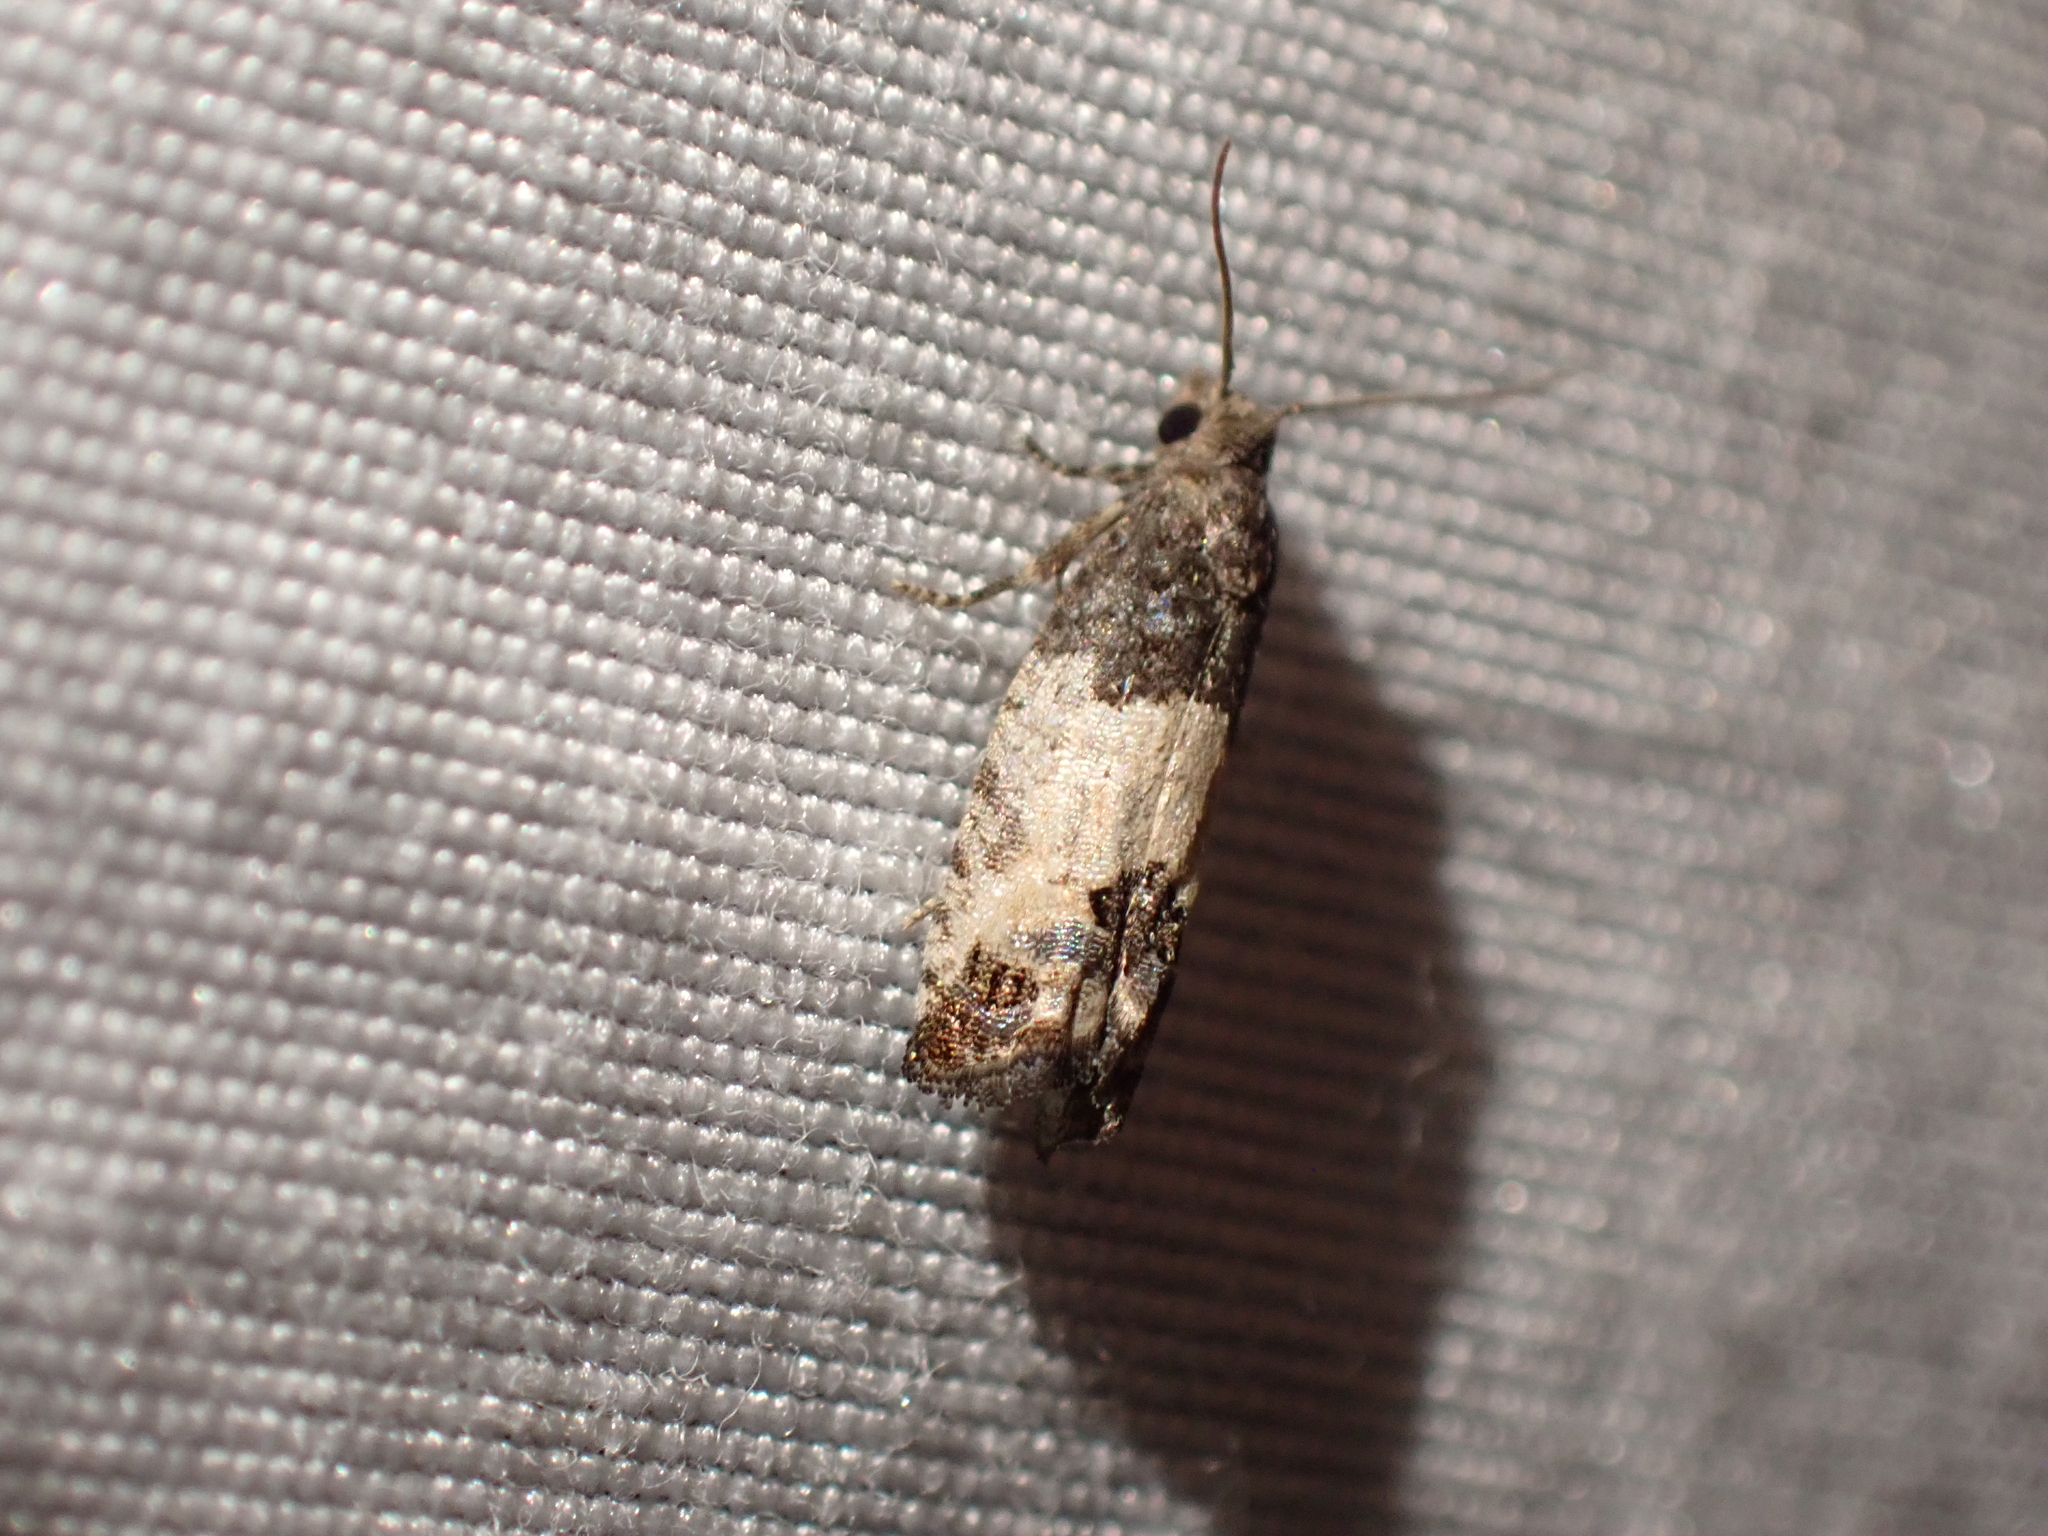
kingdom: Animalia
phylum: Arthropoda
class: Insecta
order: Lepidoptera
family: Tortricidae
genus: Spilonota
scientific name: Spilonota ocellana
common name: Bud moth
